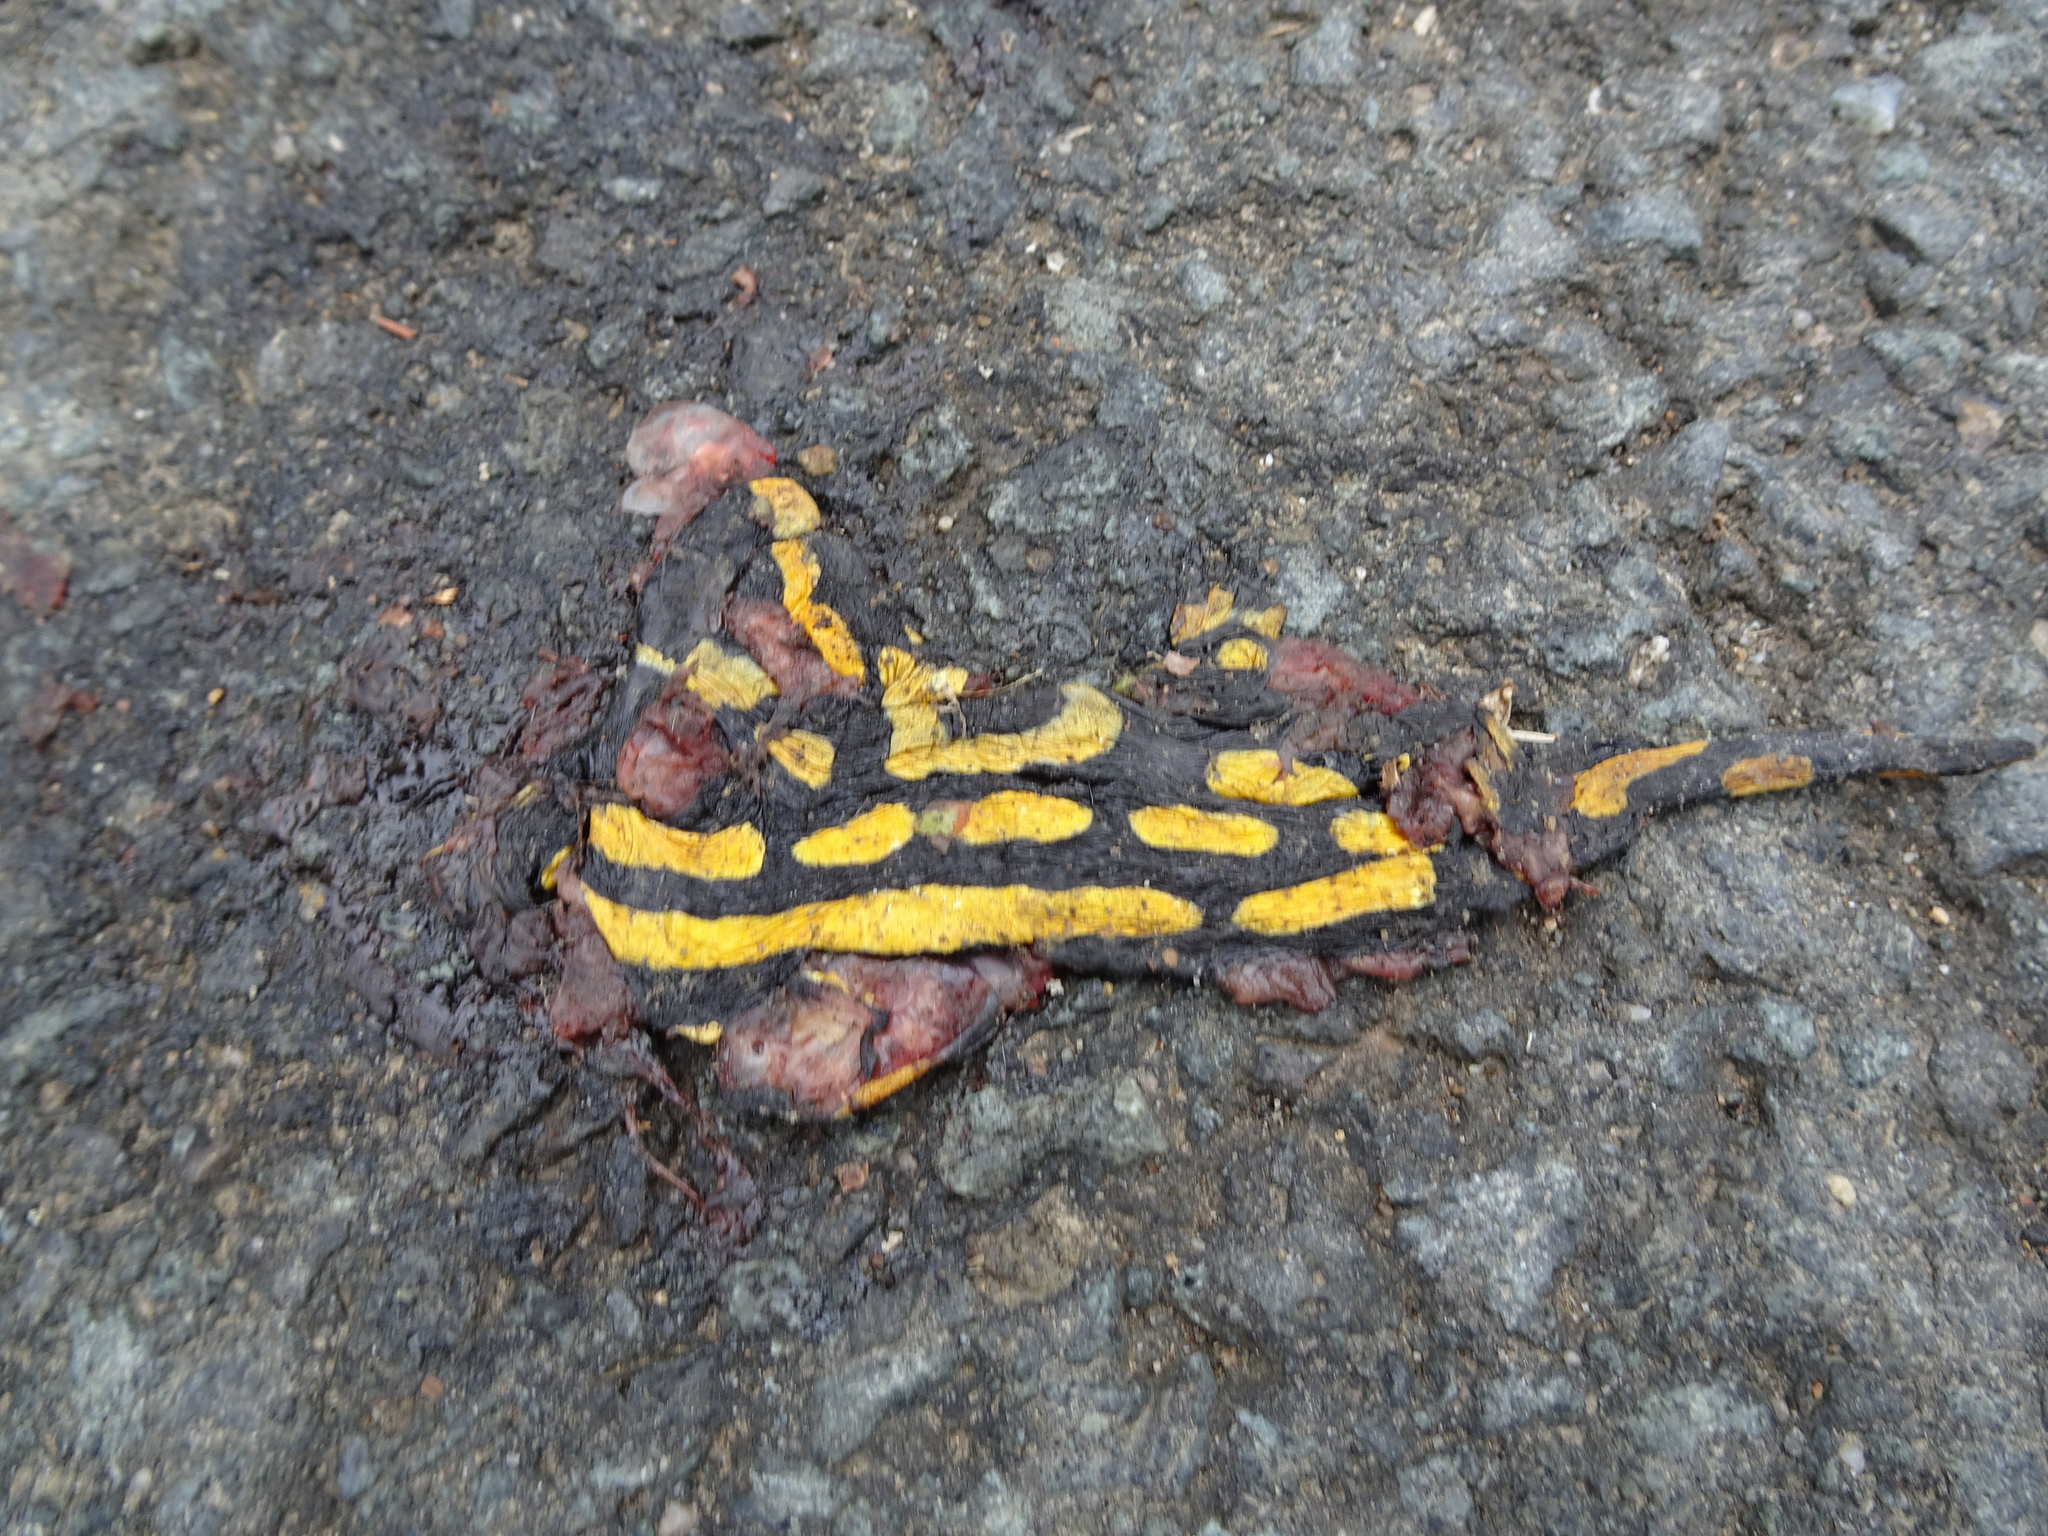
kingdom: Animalia
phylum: Chordata
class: Amphibia
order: Caudata
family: Salamandridae
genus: Salamandra
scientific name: Salamandra salamandra
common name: Fire salamander
